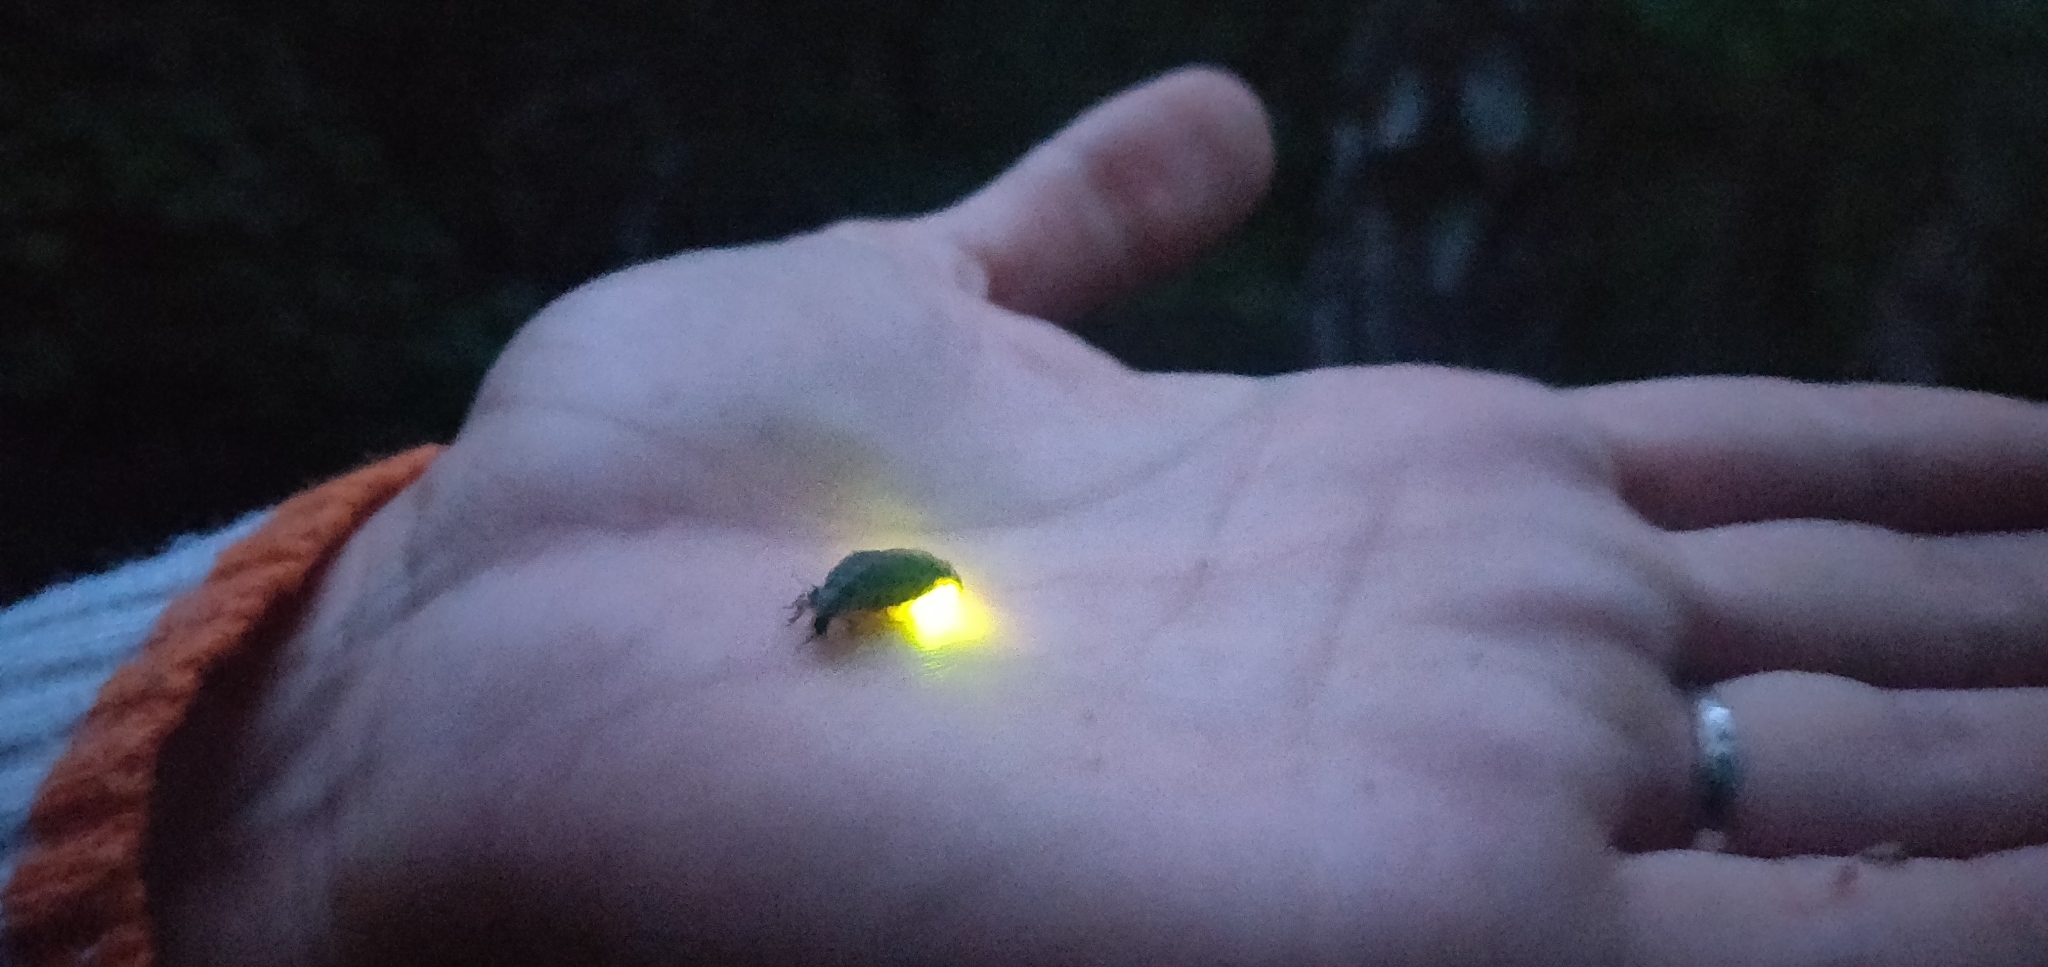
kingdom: Animalia
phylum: Arthropoda
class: Insecta
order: Coleoptera
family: Lampyridae
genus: Lampyris
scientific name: Lampyris noctiluca
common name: Glow-worm
